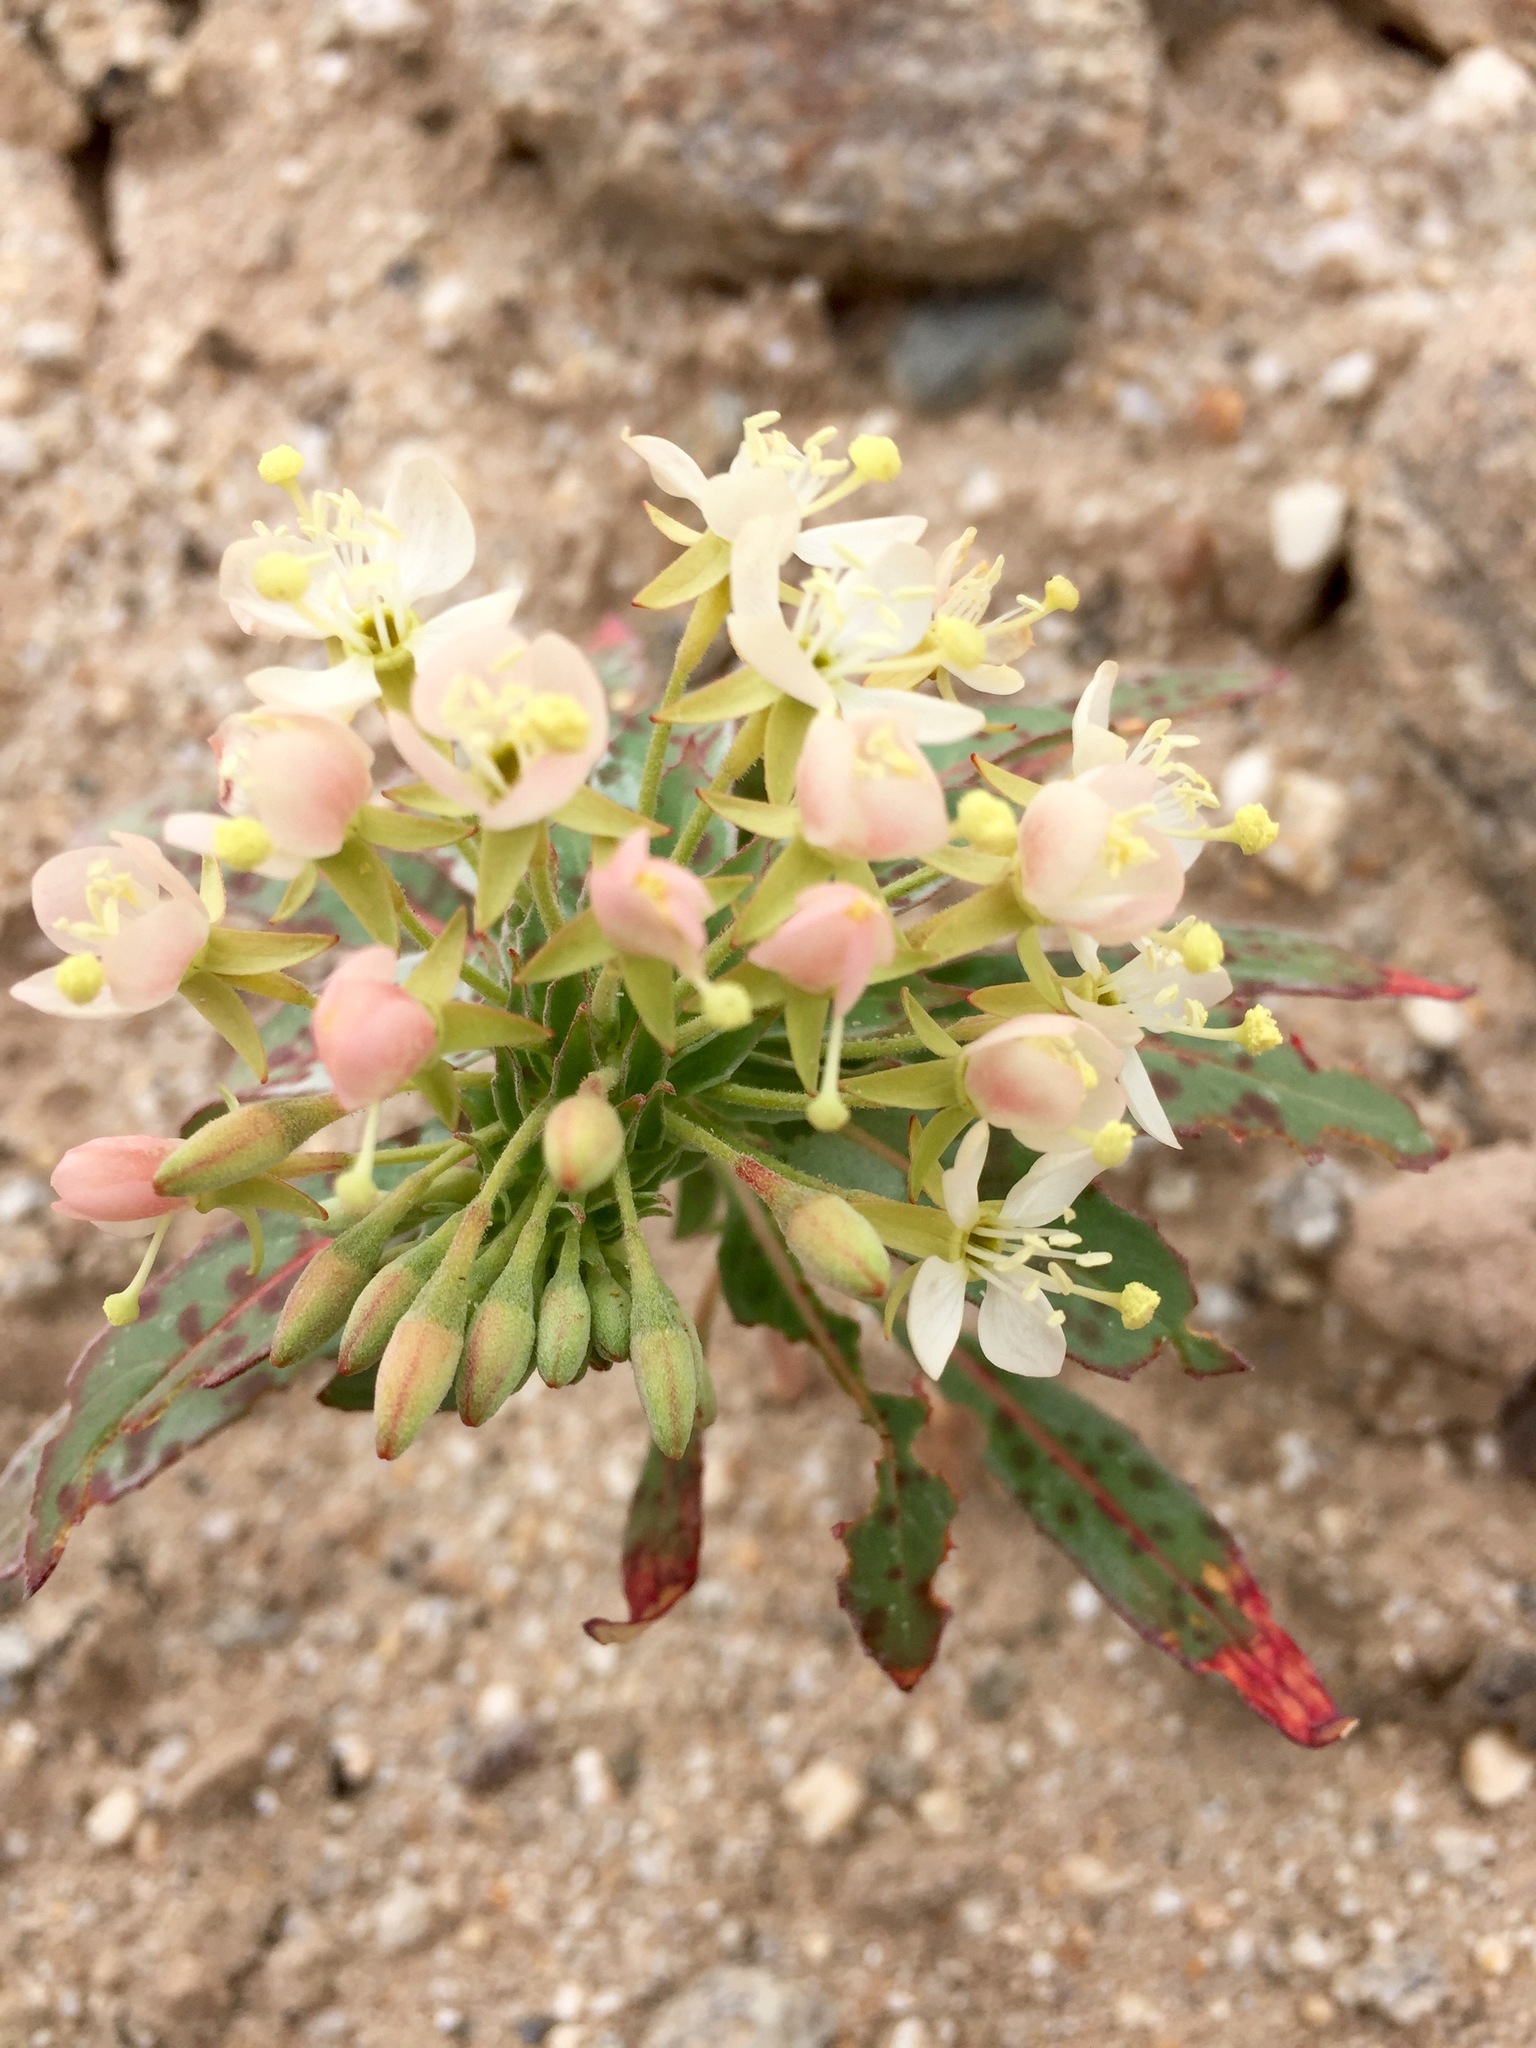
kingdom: Plantae
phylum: Tracheophyta
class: Magnoliopsida
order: Myrtales
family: Onagraceae
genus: Eremothera
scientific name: Eremothera boothii
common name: Booth's evening primrose
